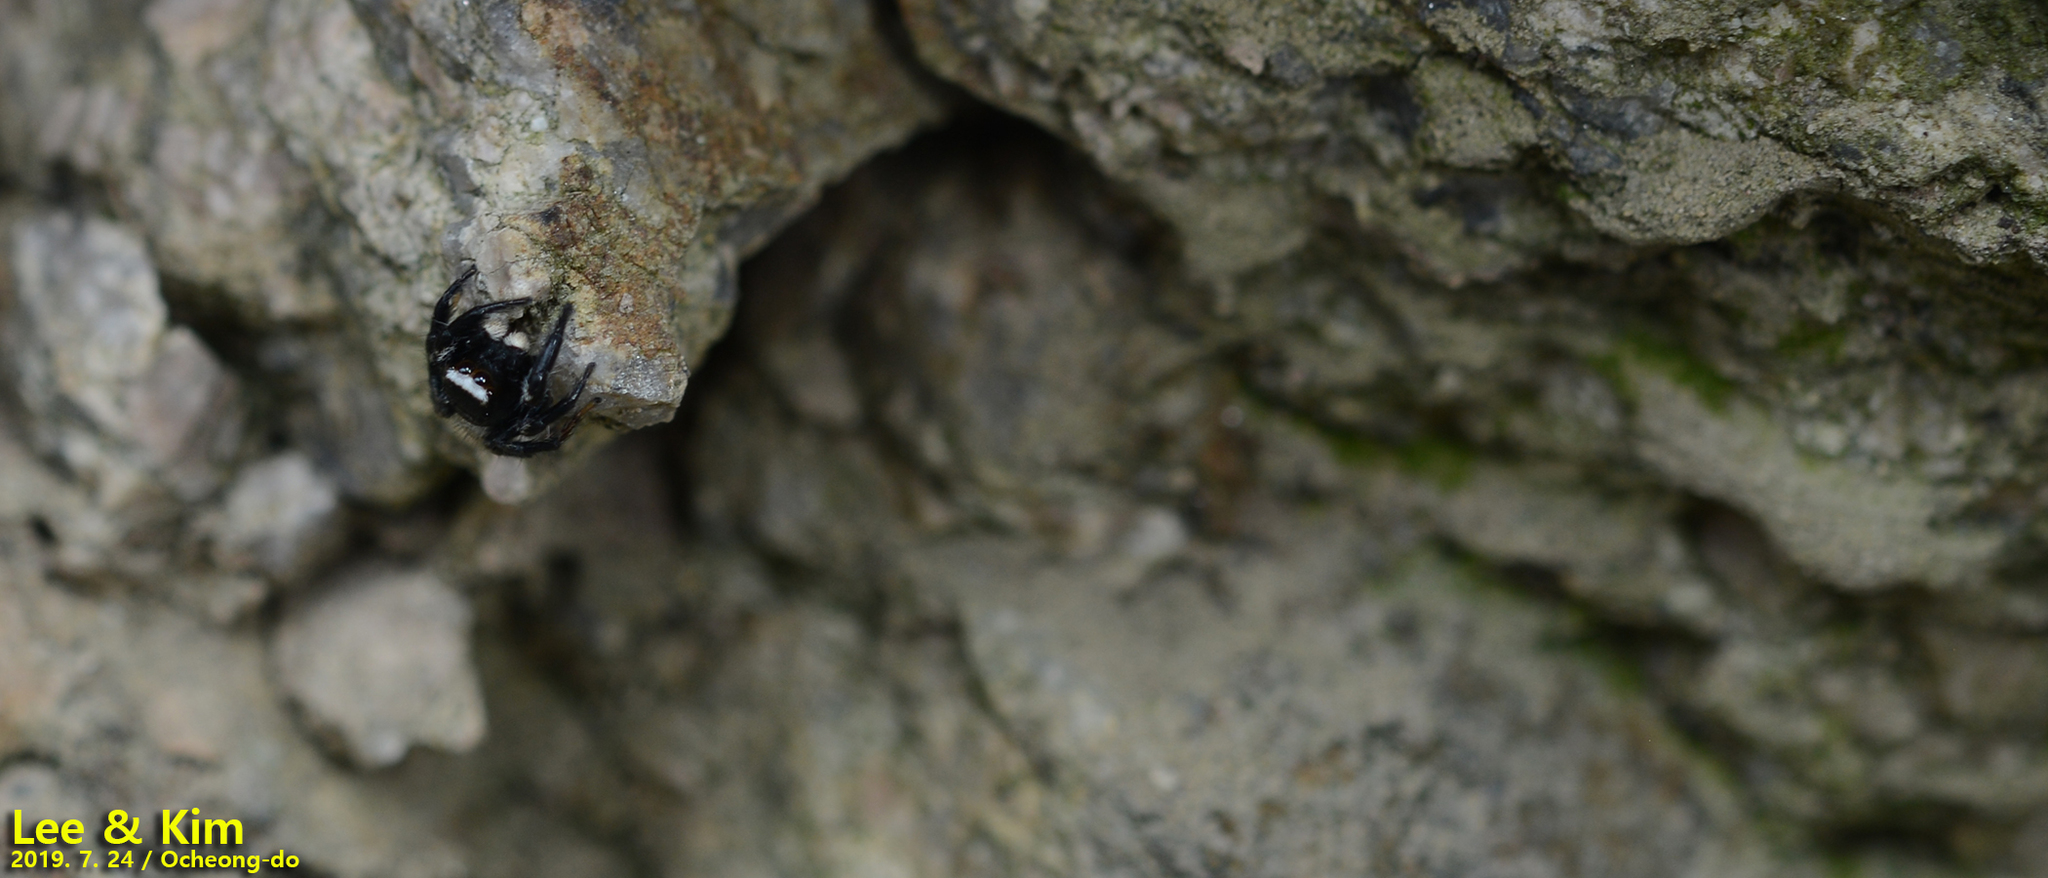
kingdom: Animalia
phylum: Arthropoda
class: Arachnida
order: Araneae
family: Salticidae
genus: Evarcha
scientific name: Evarcha albaria
